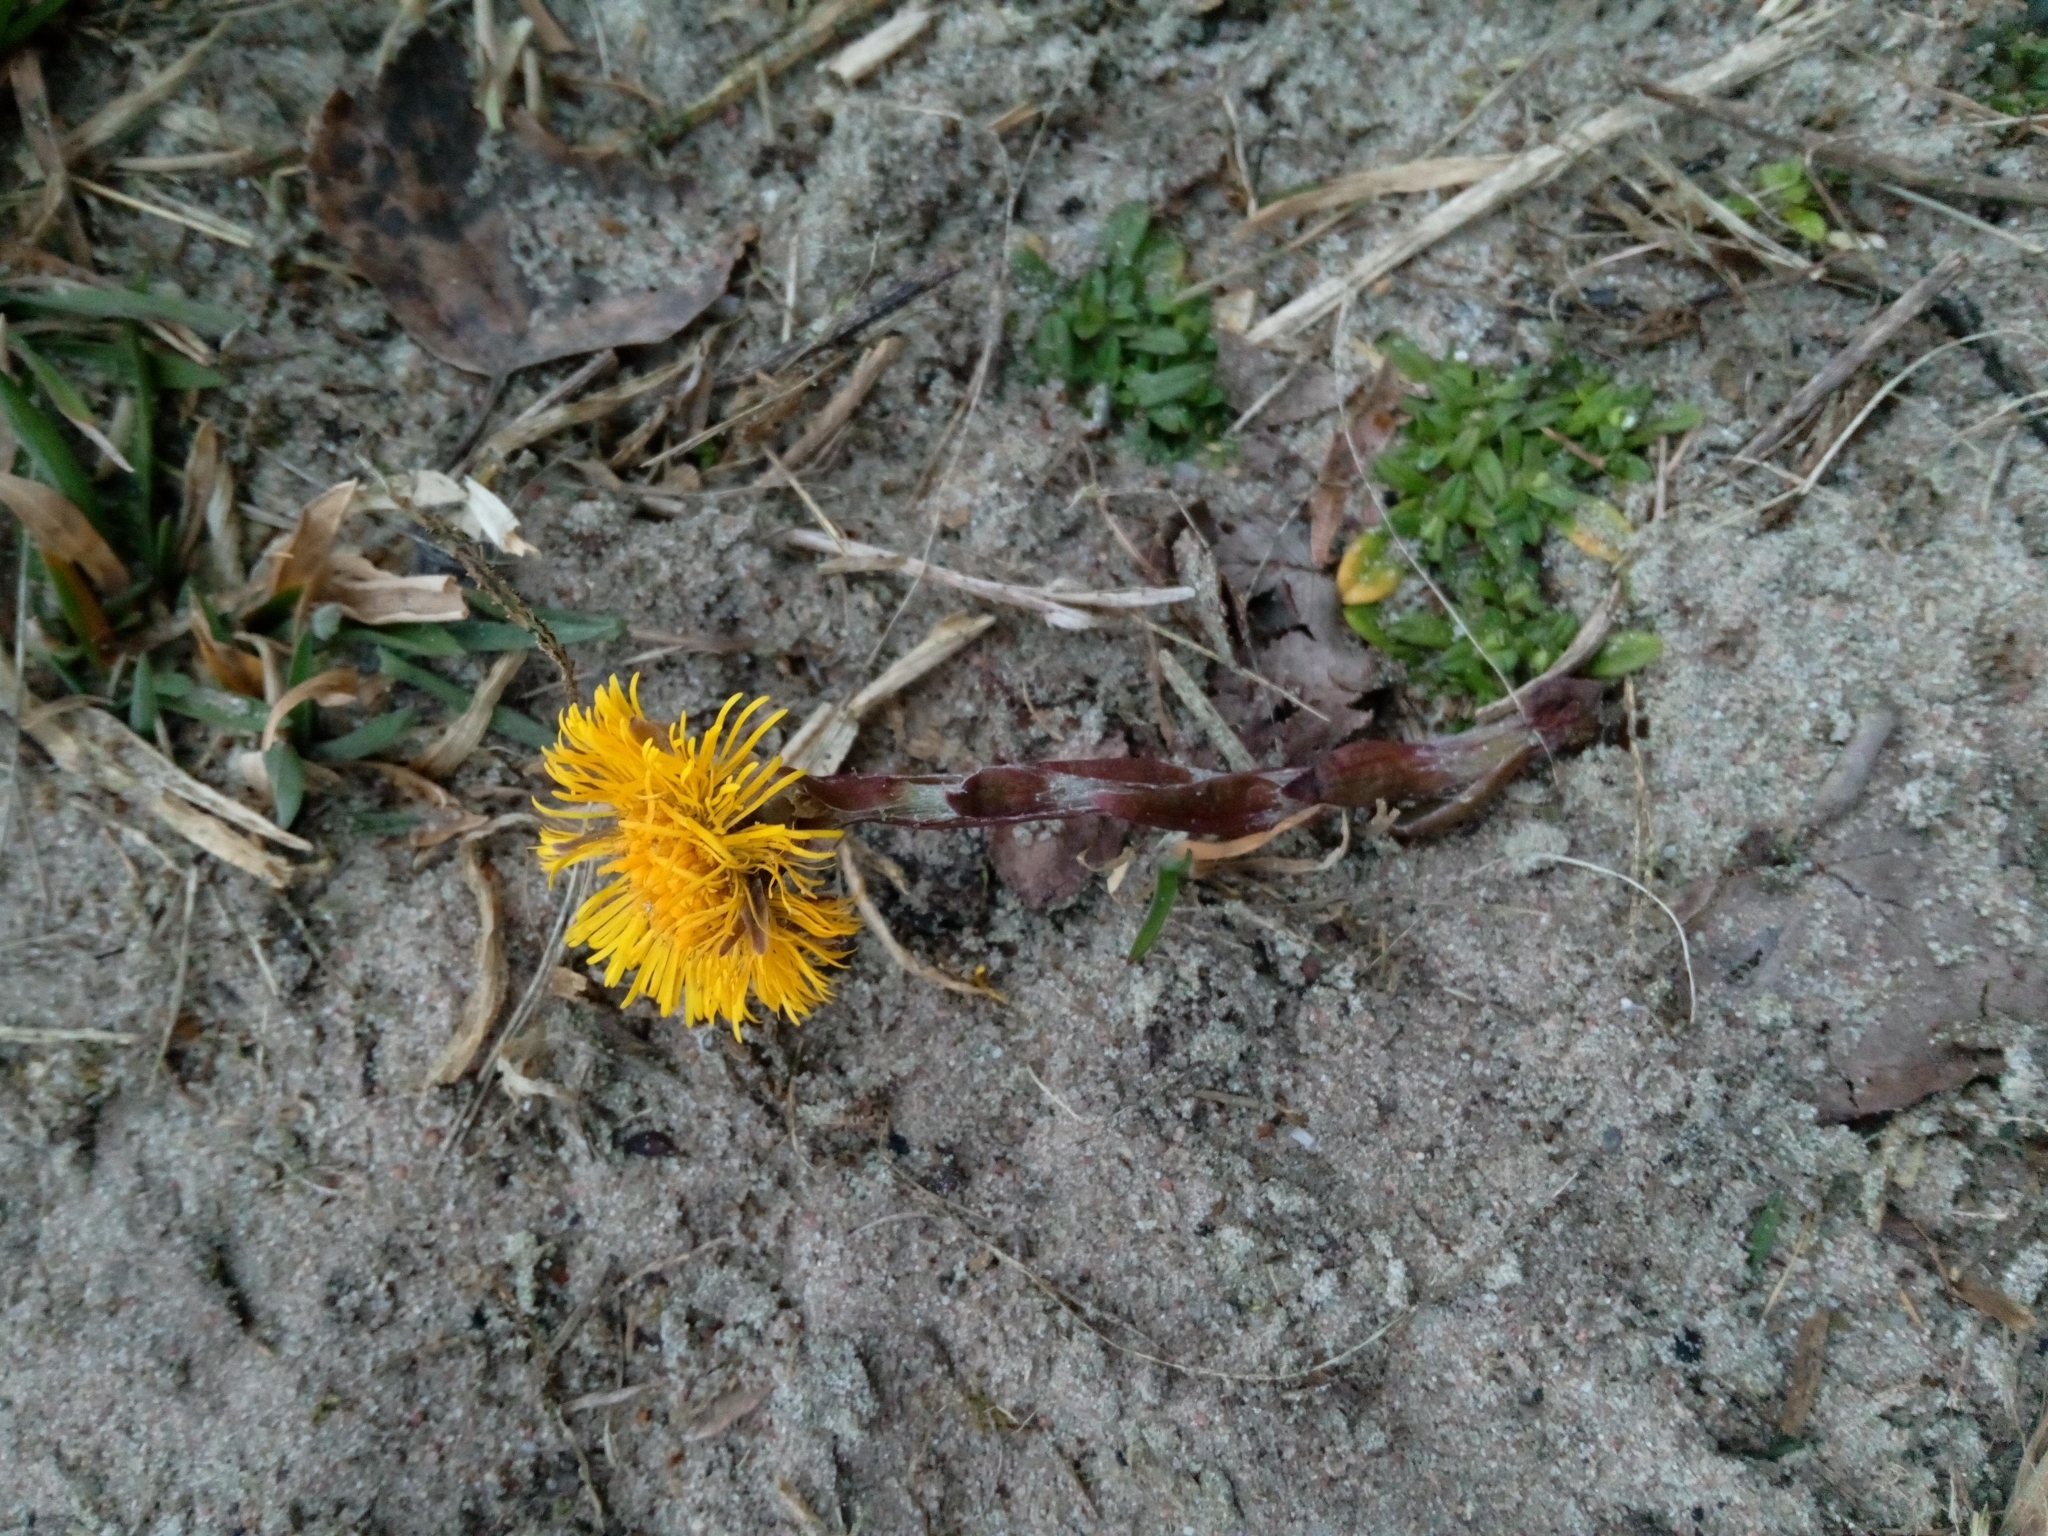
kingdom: Plantae
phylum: Tracheophyta
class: Magnoliopsida
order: Asterales
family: Asteraceae
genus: Tussilago
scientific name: Tussilago farfara
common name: Coltsfoot
